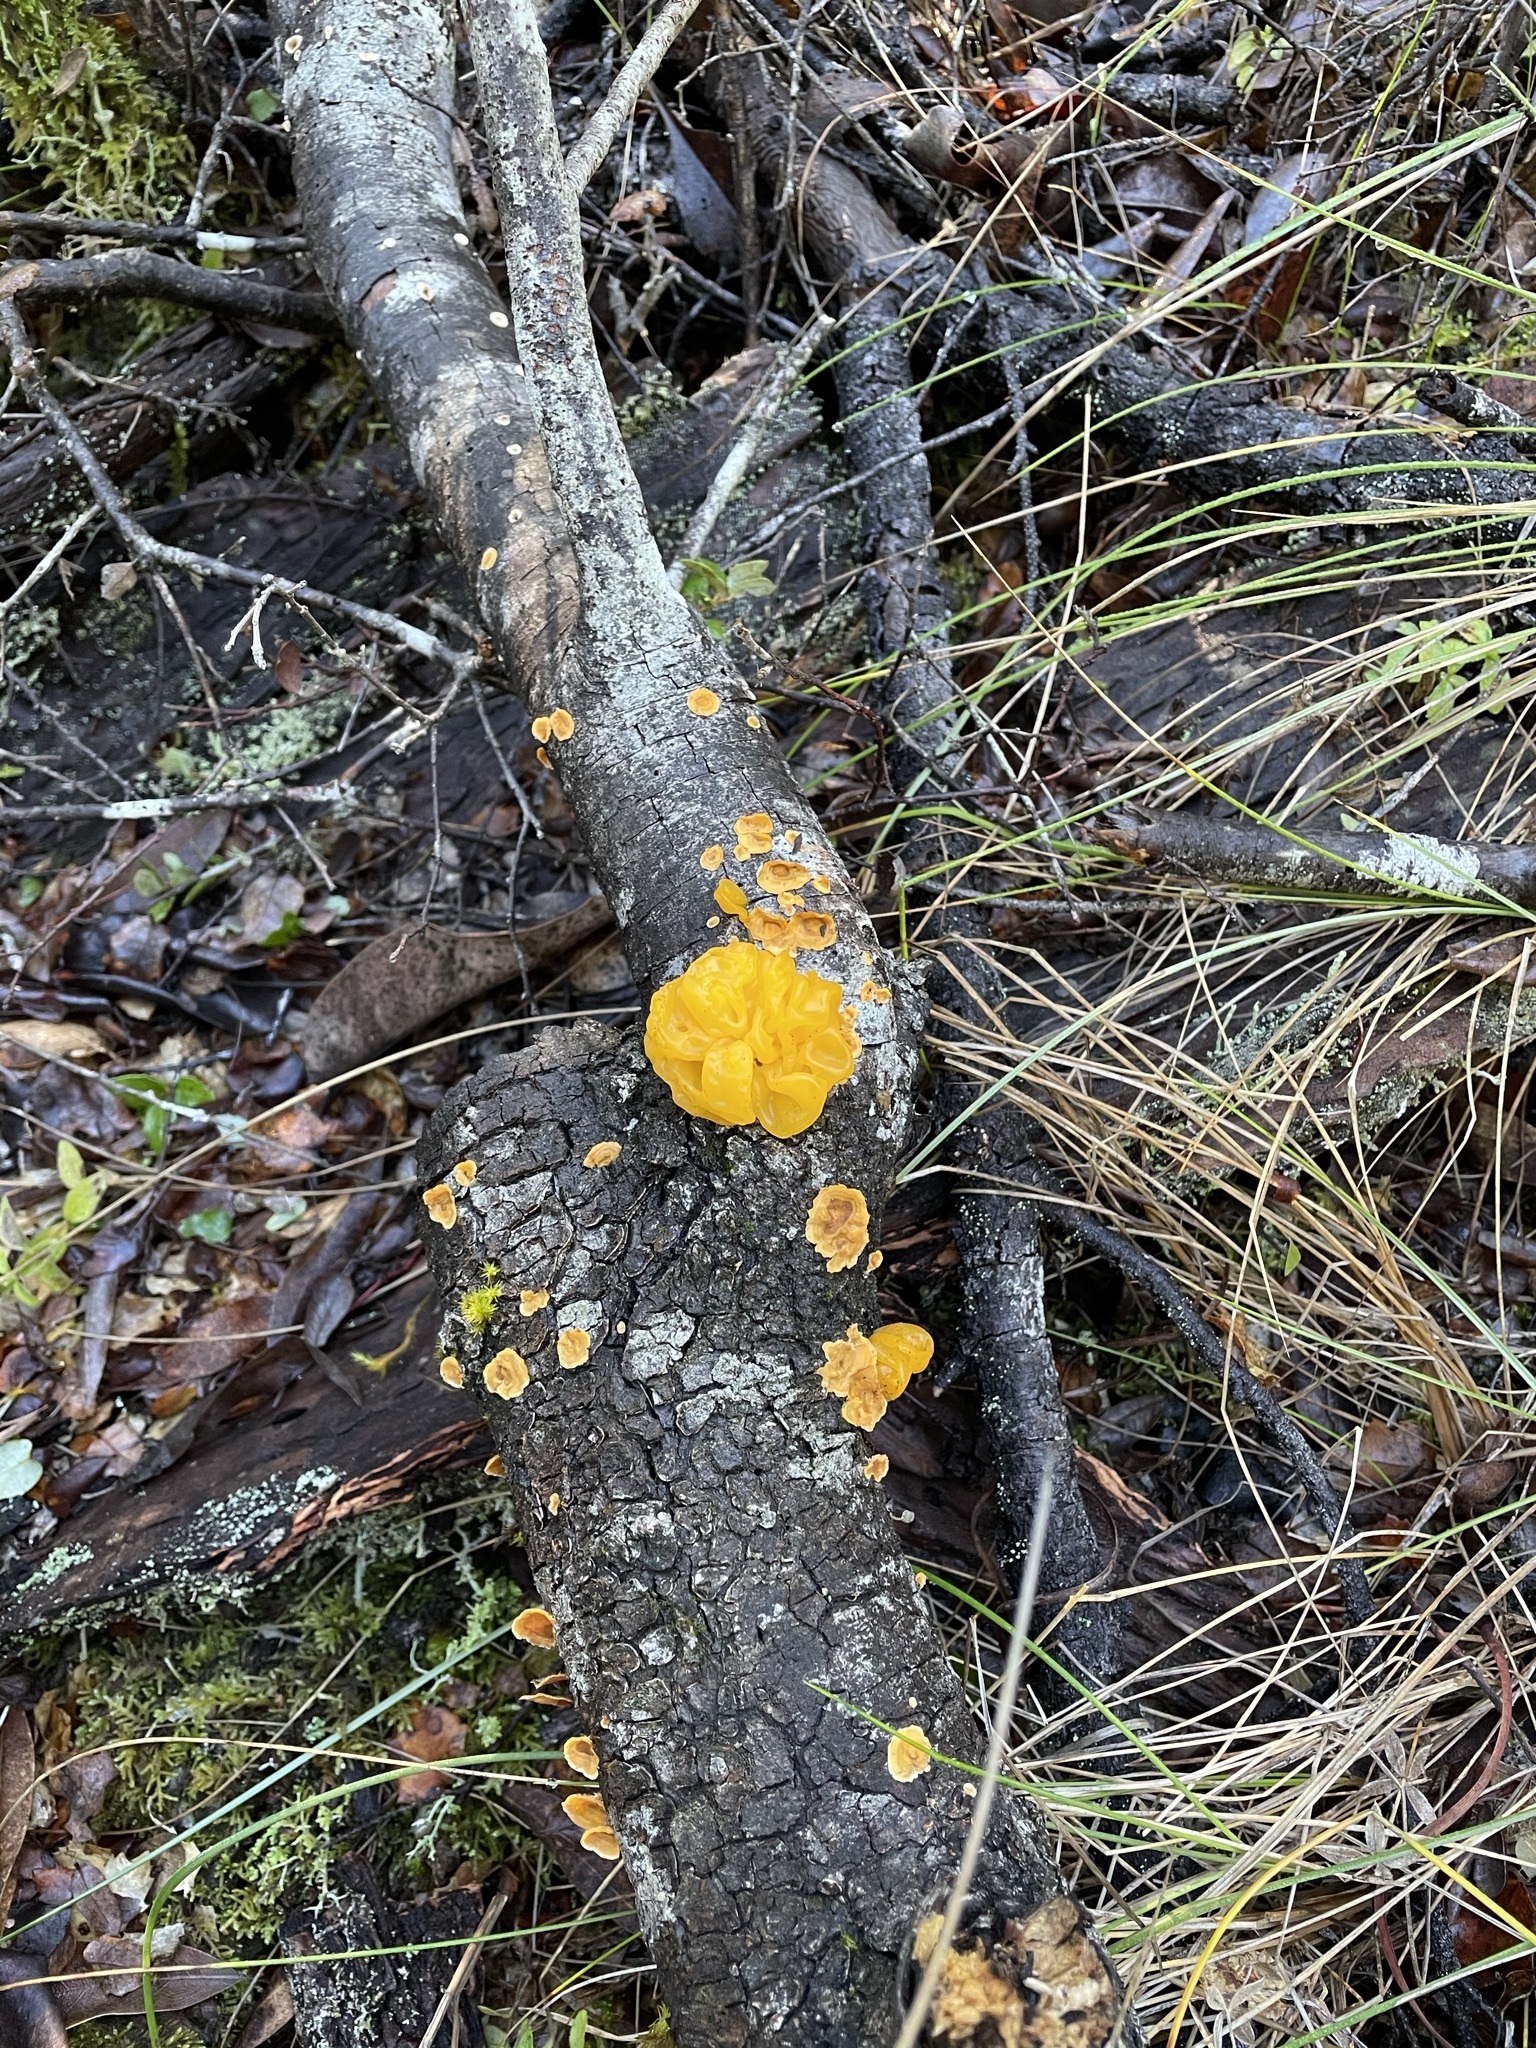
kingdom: Fungi
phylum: Basidiomycota
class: Tremellomycetes
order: Tremellales
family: Naemateliaceae
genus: Naematelia
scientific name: Naematelia aurantia
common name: Golden ear
